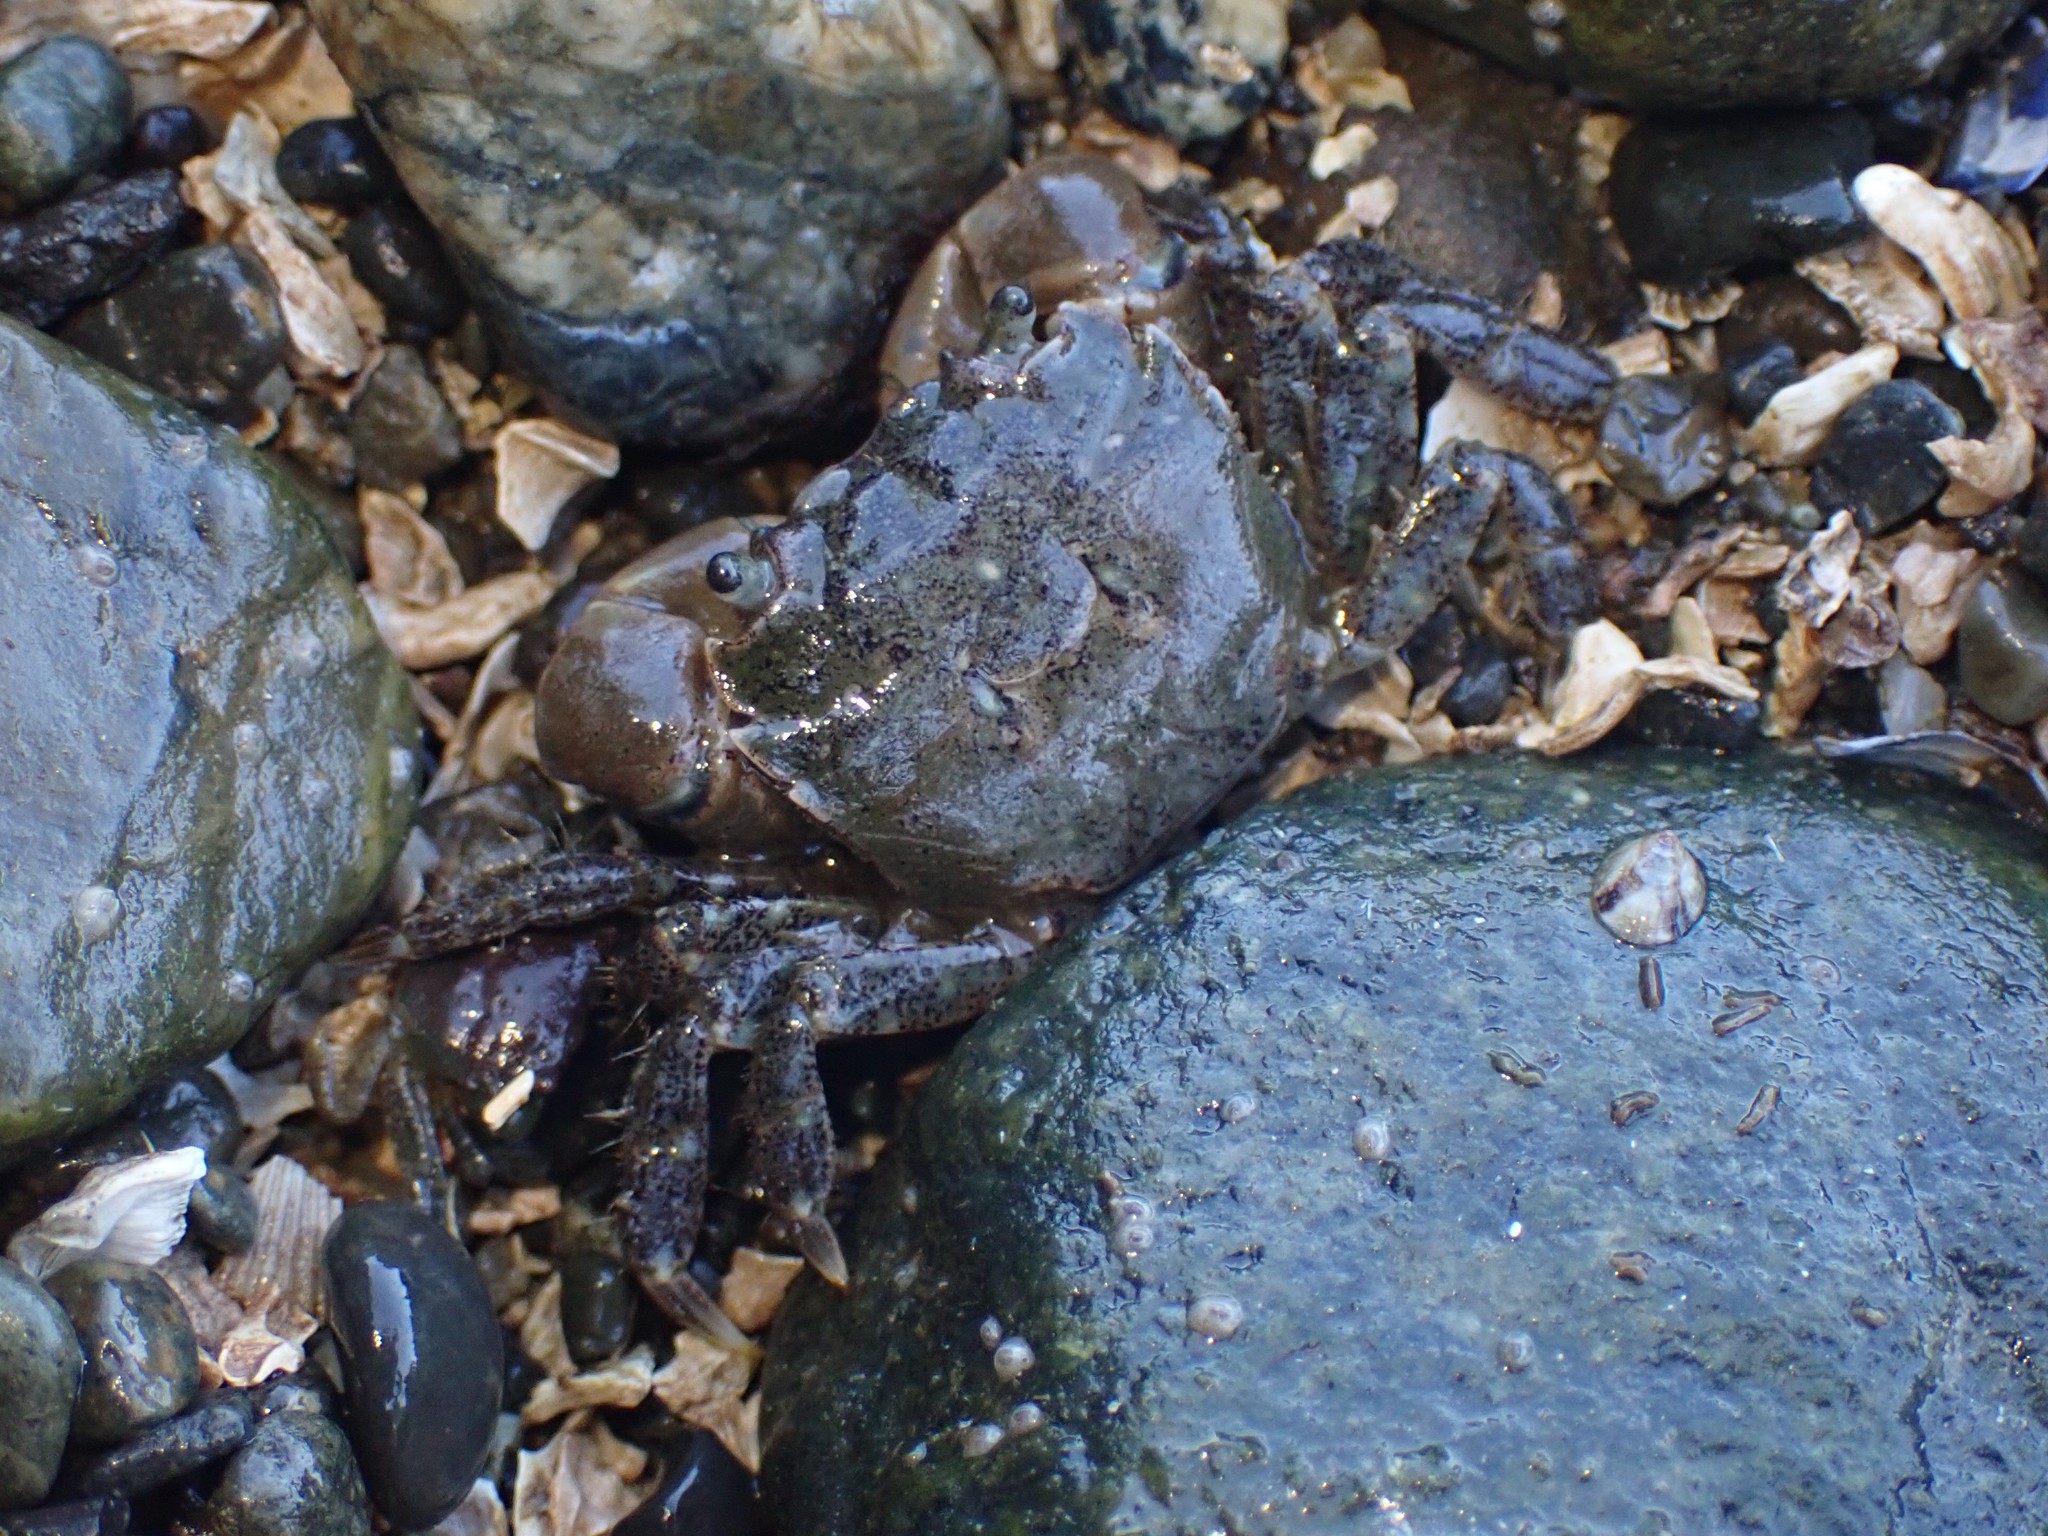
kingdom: Animalia
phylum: Arthropoda
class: Malacostraca
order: Decapoda
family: Varunidae
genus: Hemigrapsus
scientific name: Hemigrapsus oregonensis
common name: Yellow shore crab
